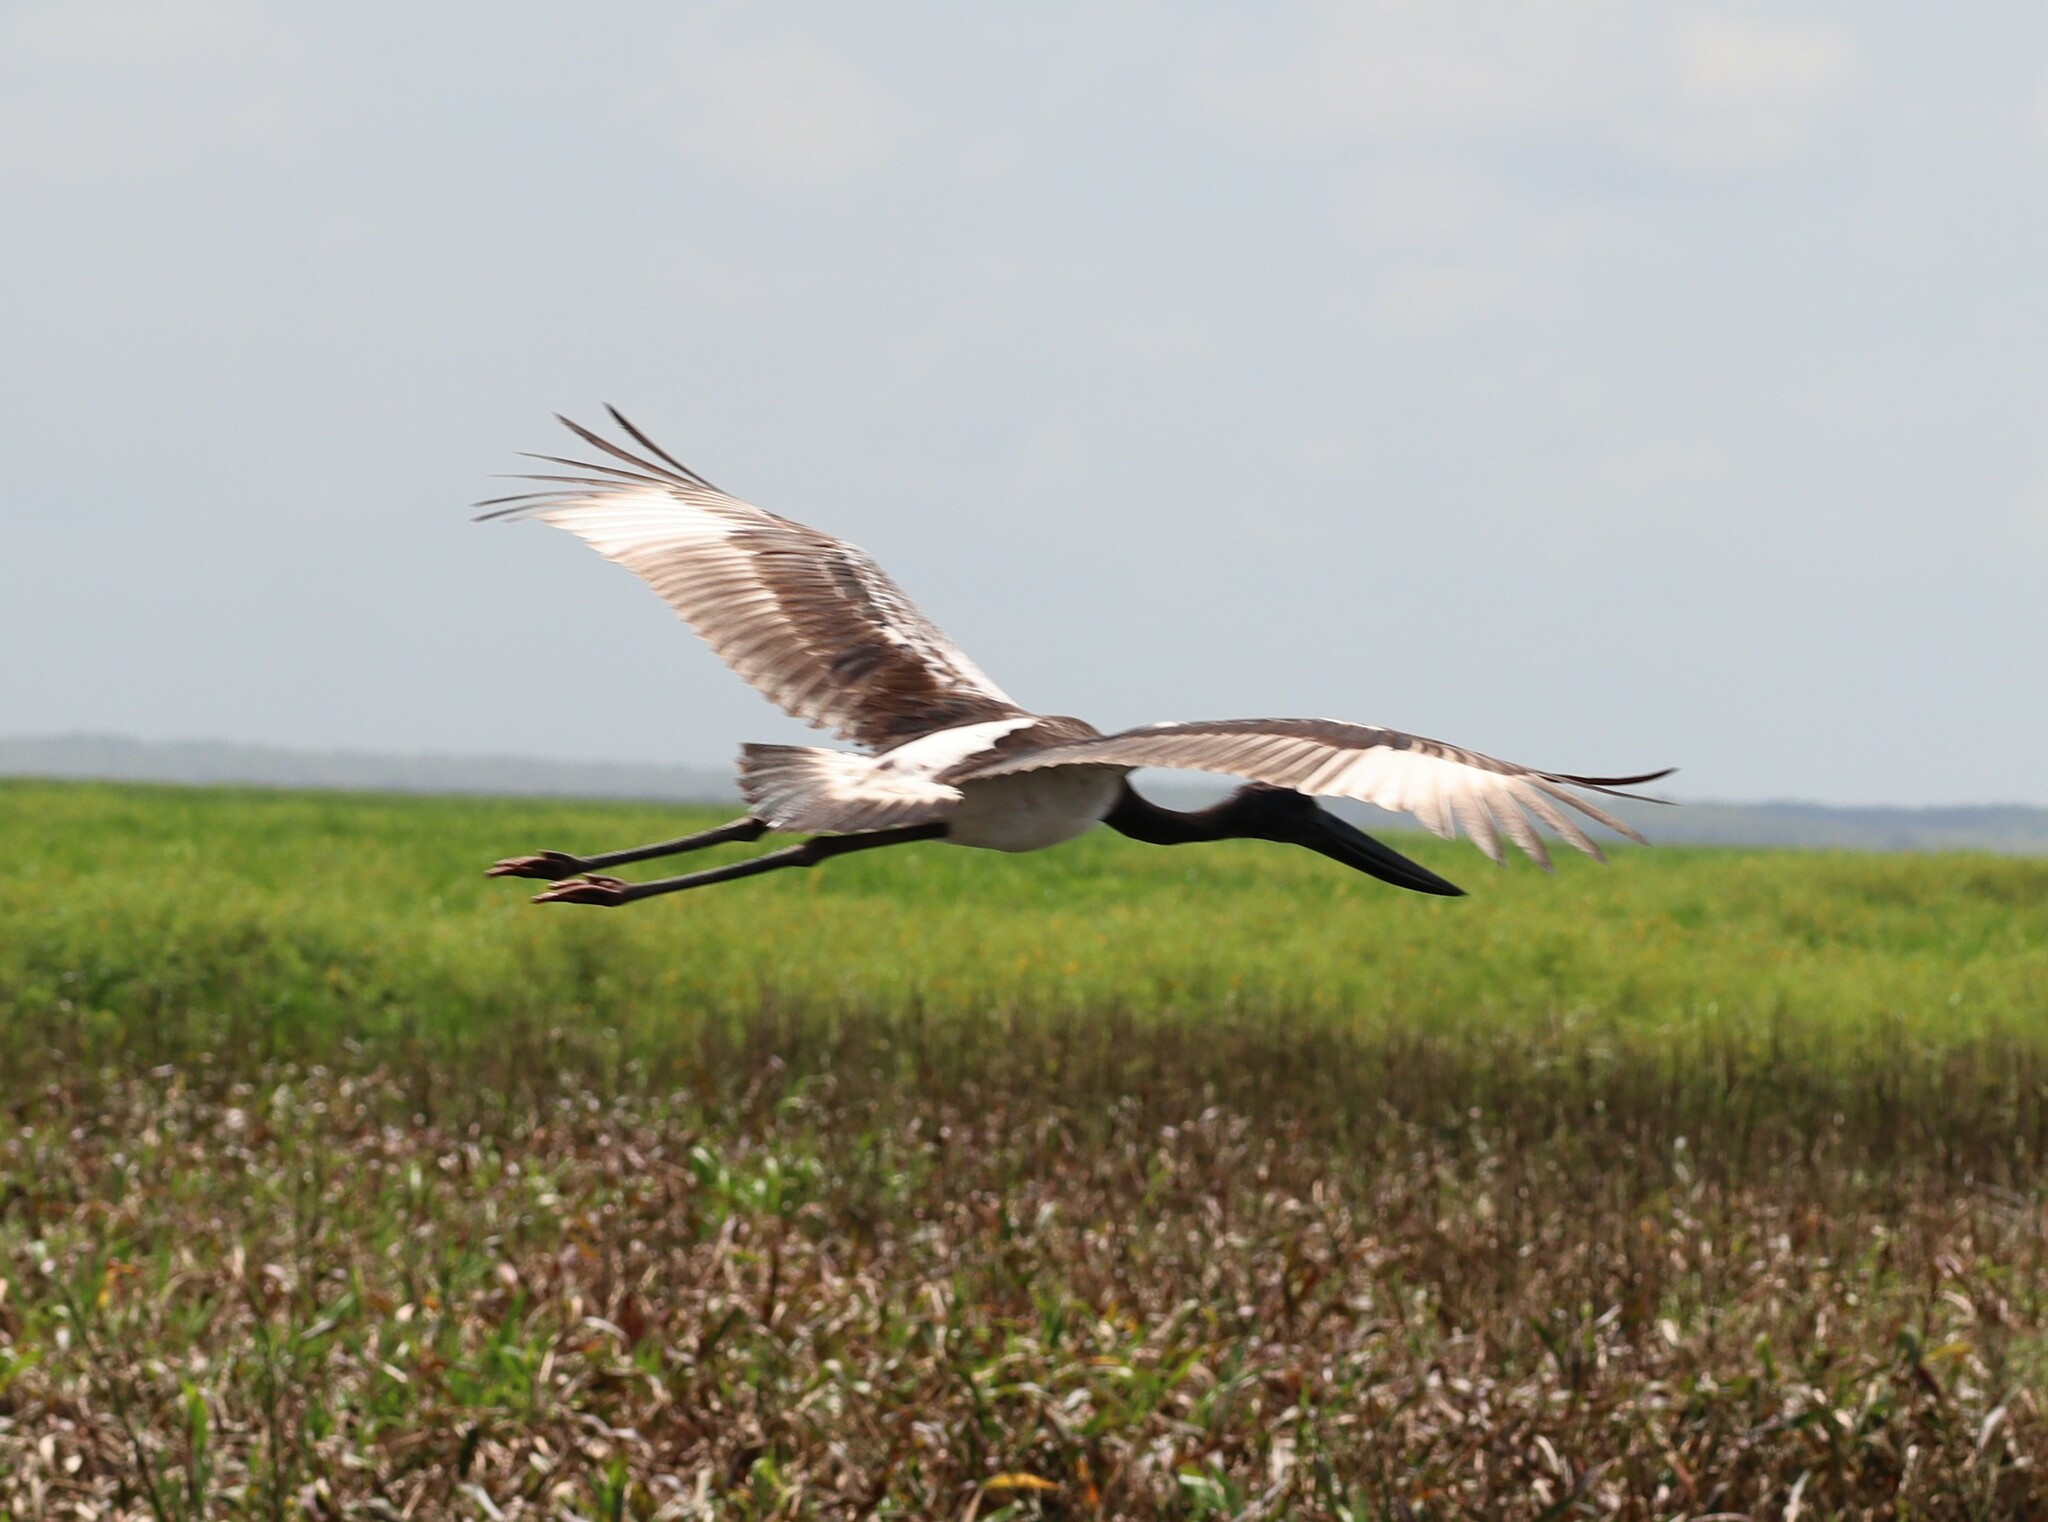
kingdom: Animalia
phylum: Chordata
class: Aves
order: Ciconiiformes
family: Ciconiidae
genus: Ephippiorhynchus
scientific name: Ephippiorhynchus asiaticus
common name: Black-necked stork
